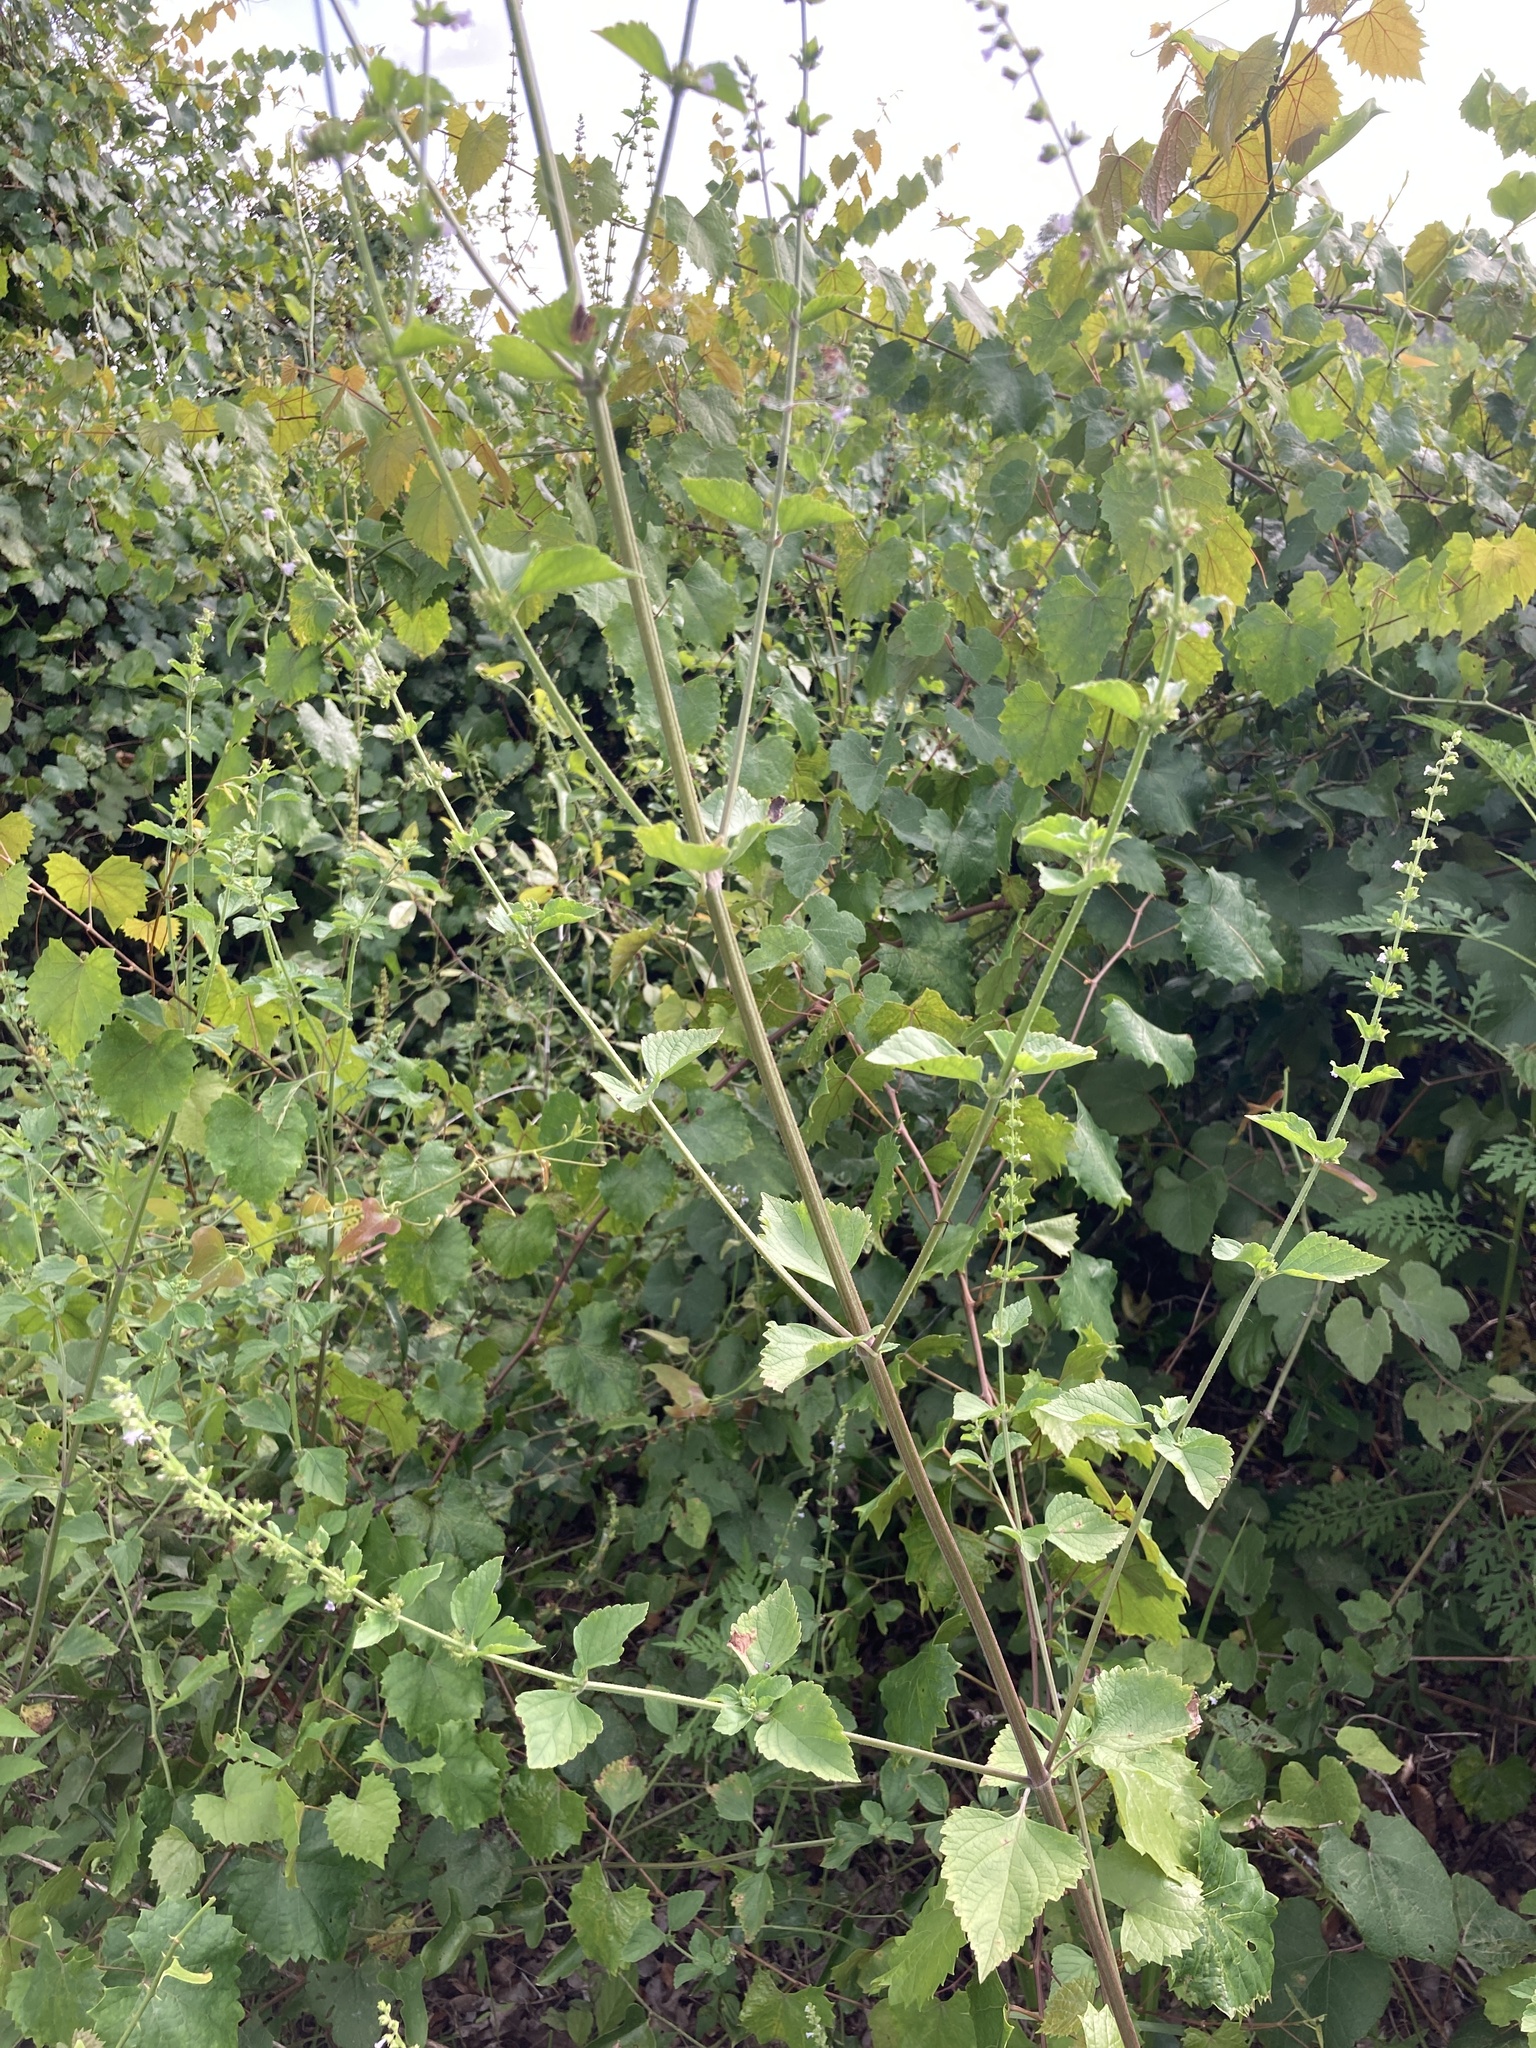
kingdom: Plantae
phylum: Tracheophyta
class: Magnoliopsida
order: Lamiales
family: Lamiaceae
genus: Cantinoa
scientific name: Cantinoa mutabilis
